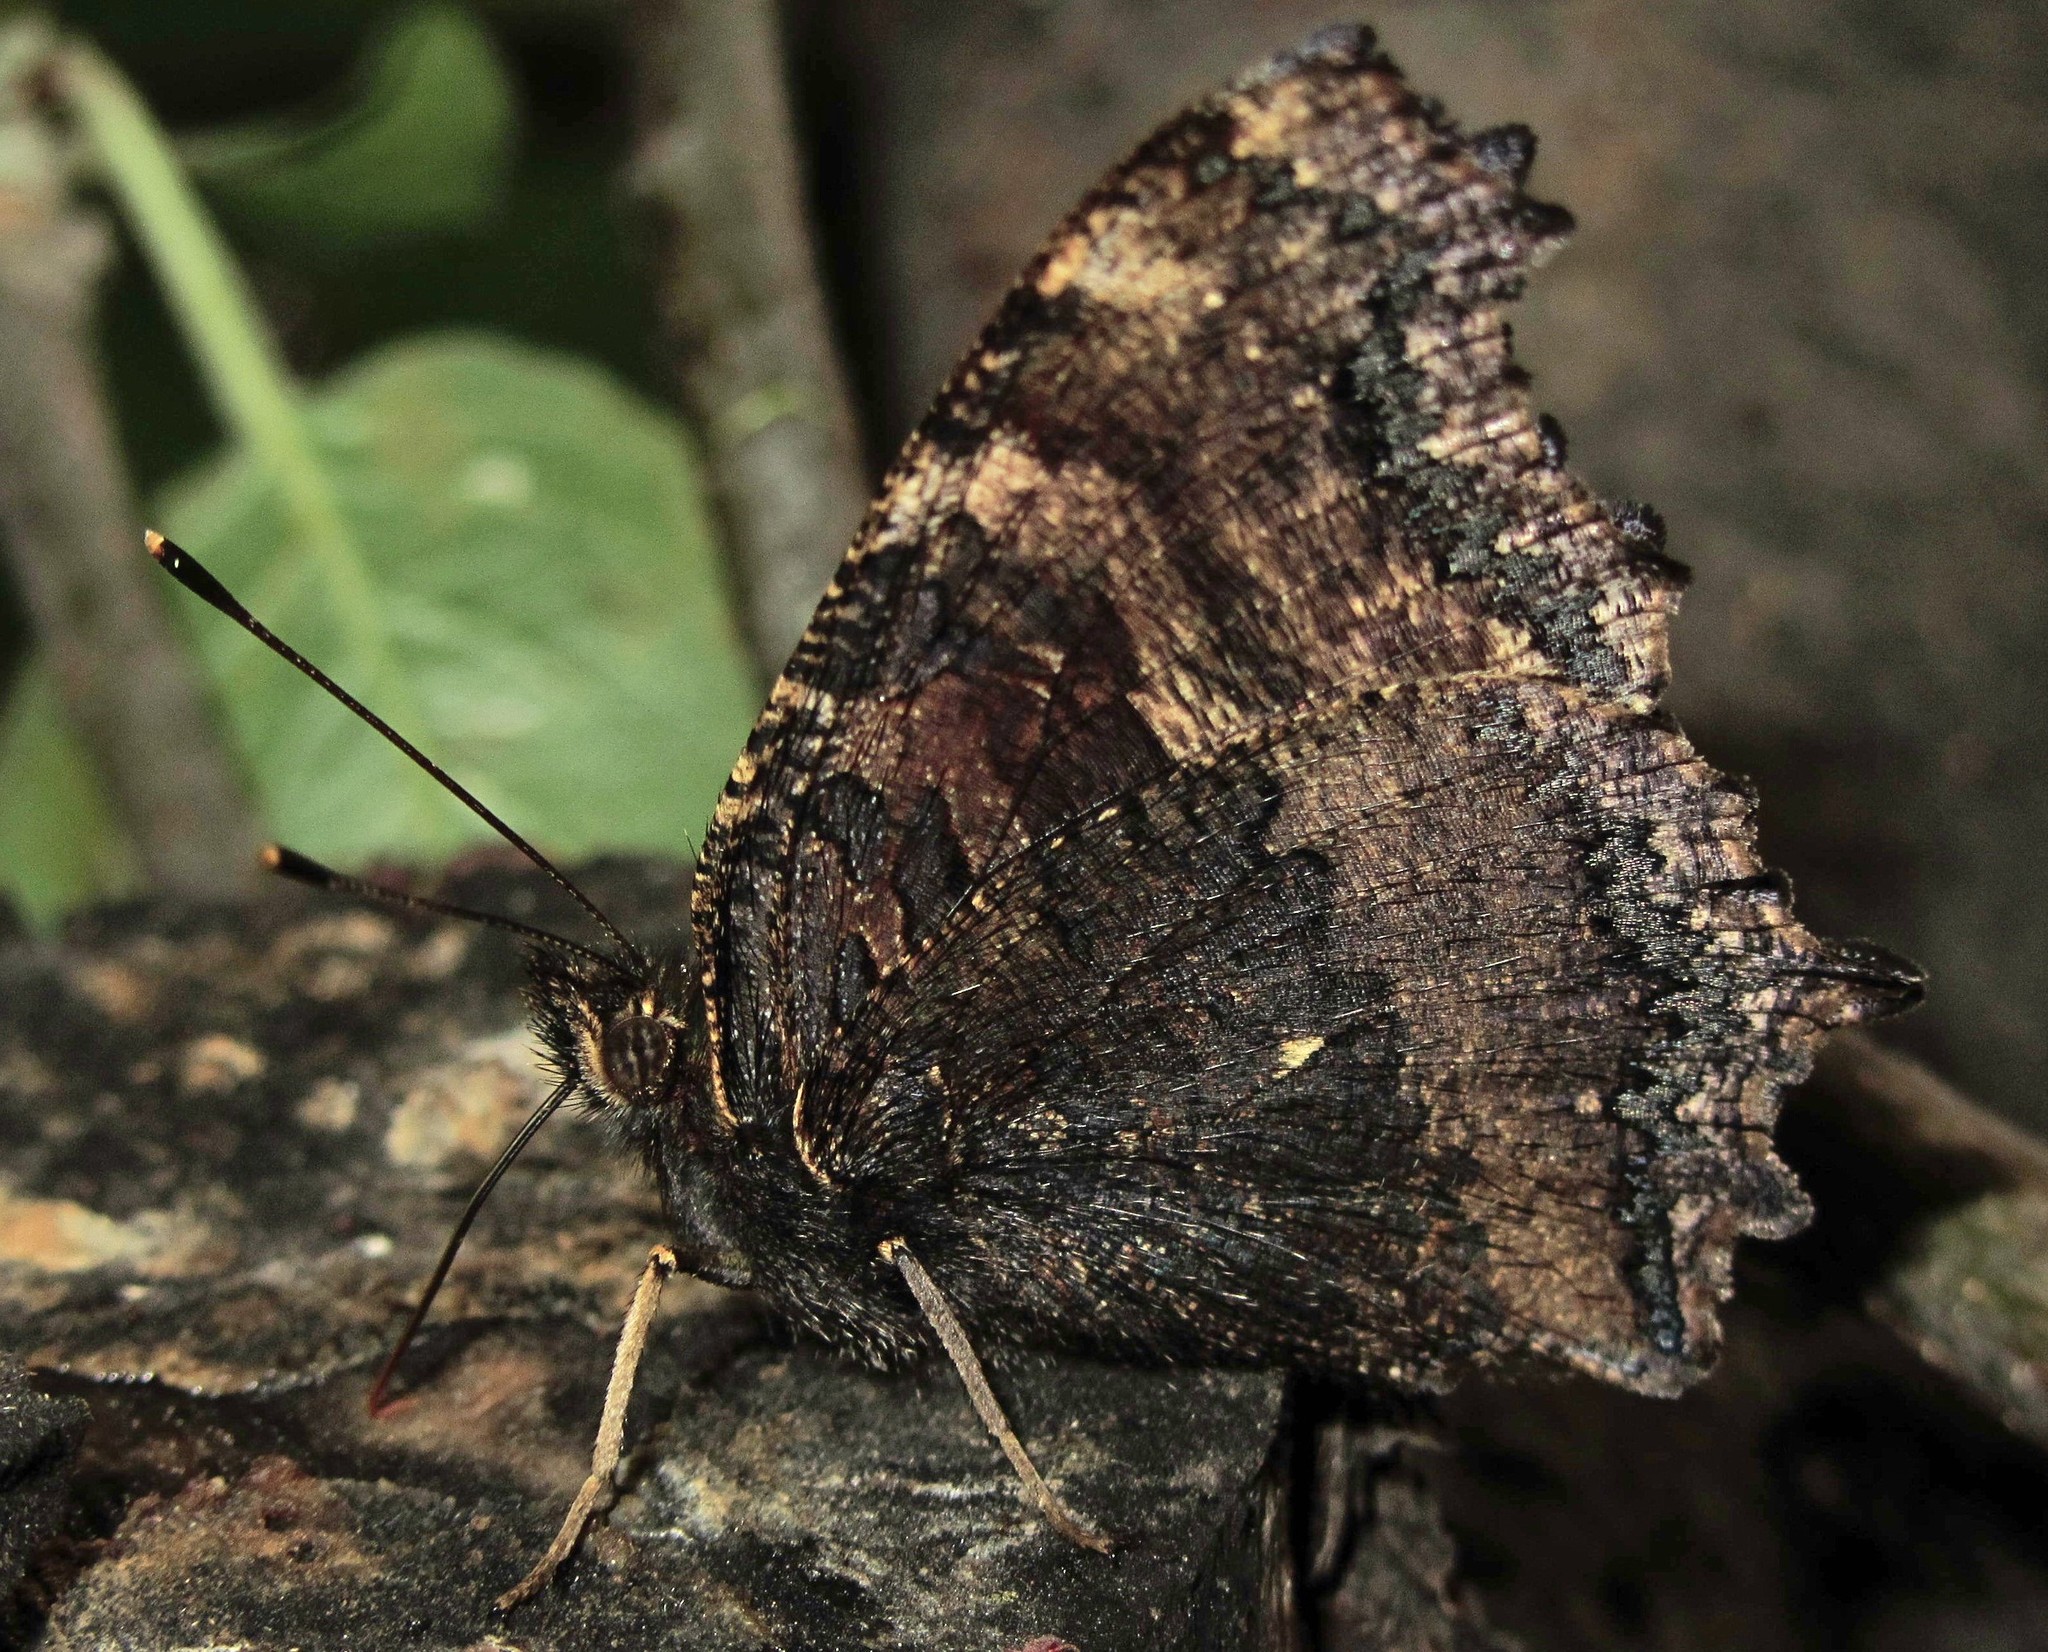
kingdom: Animalia
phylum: Arthropoda
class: Insecta
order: Lepidoptera
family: Nymphalidae
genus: Nymphalis
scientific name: Nymphalis xanthomelas
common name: Scarce tortoiseshell
